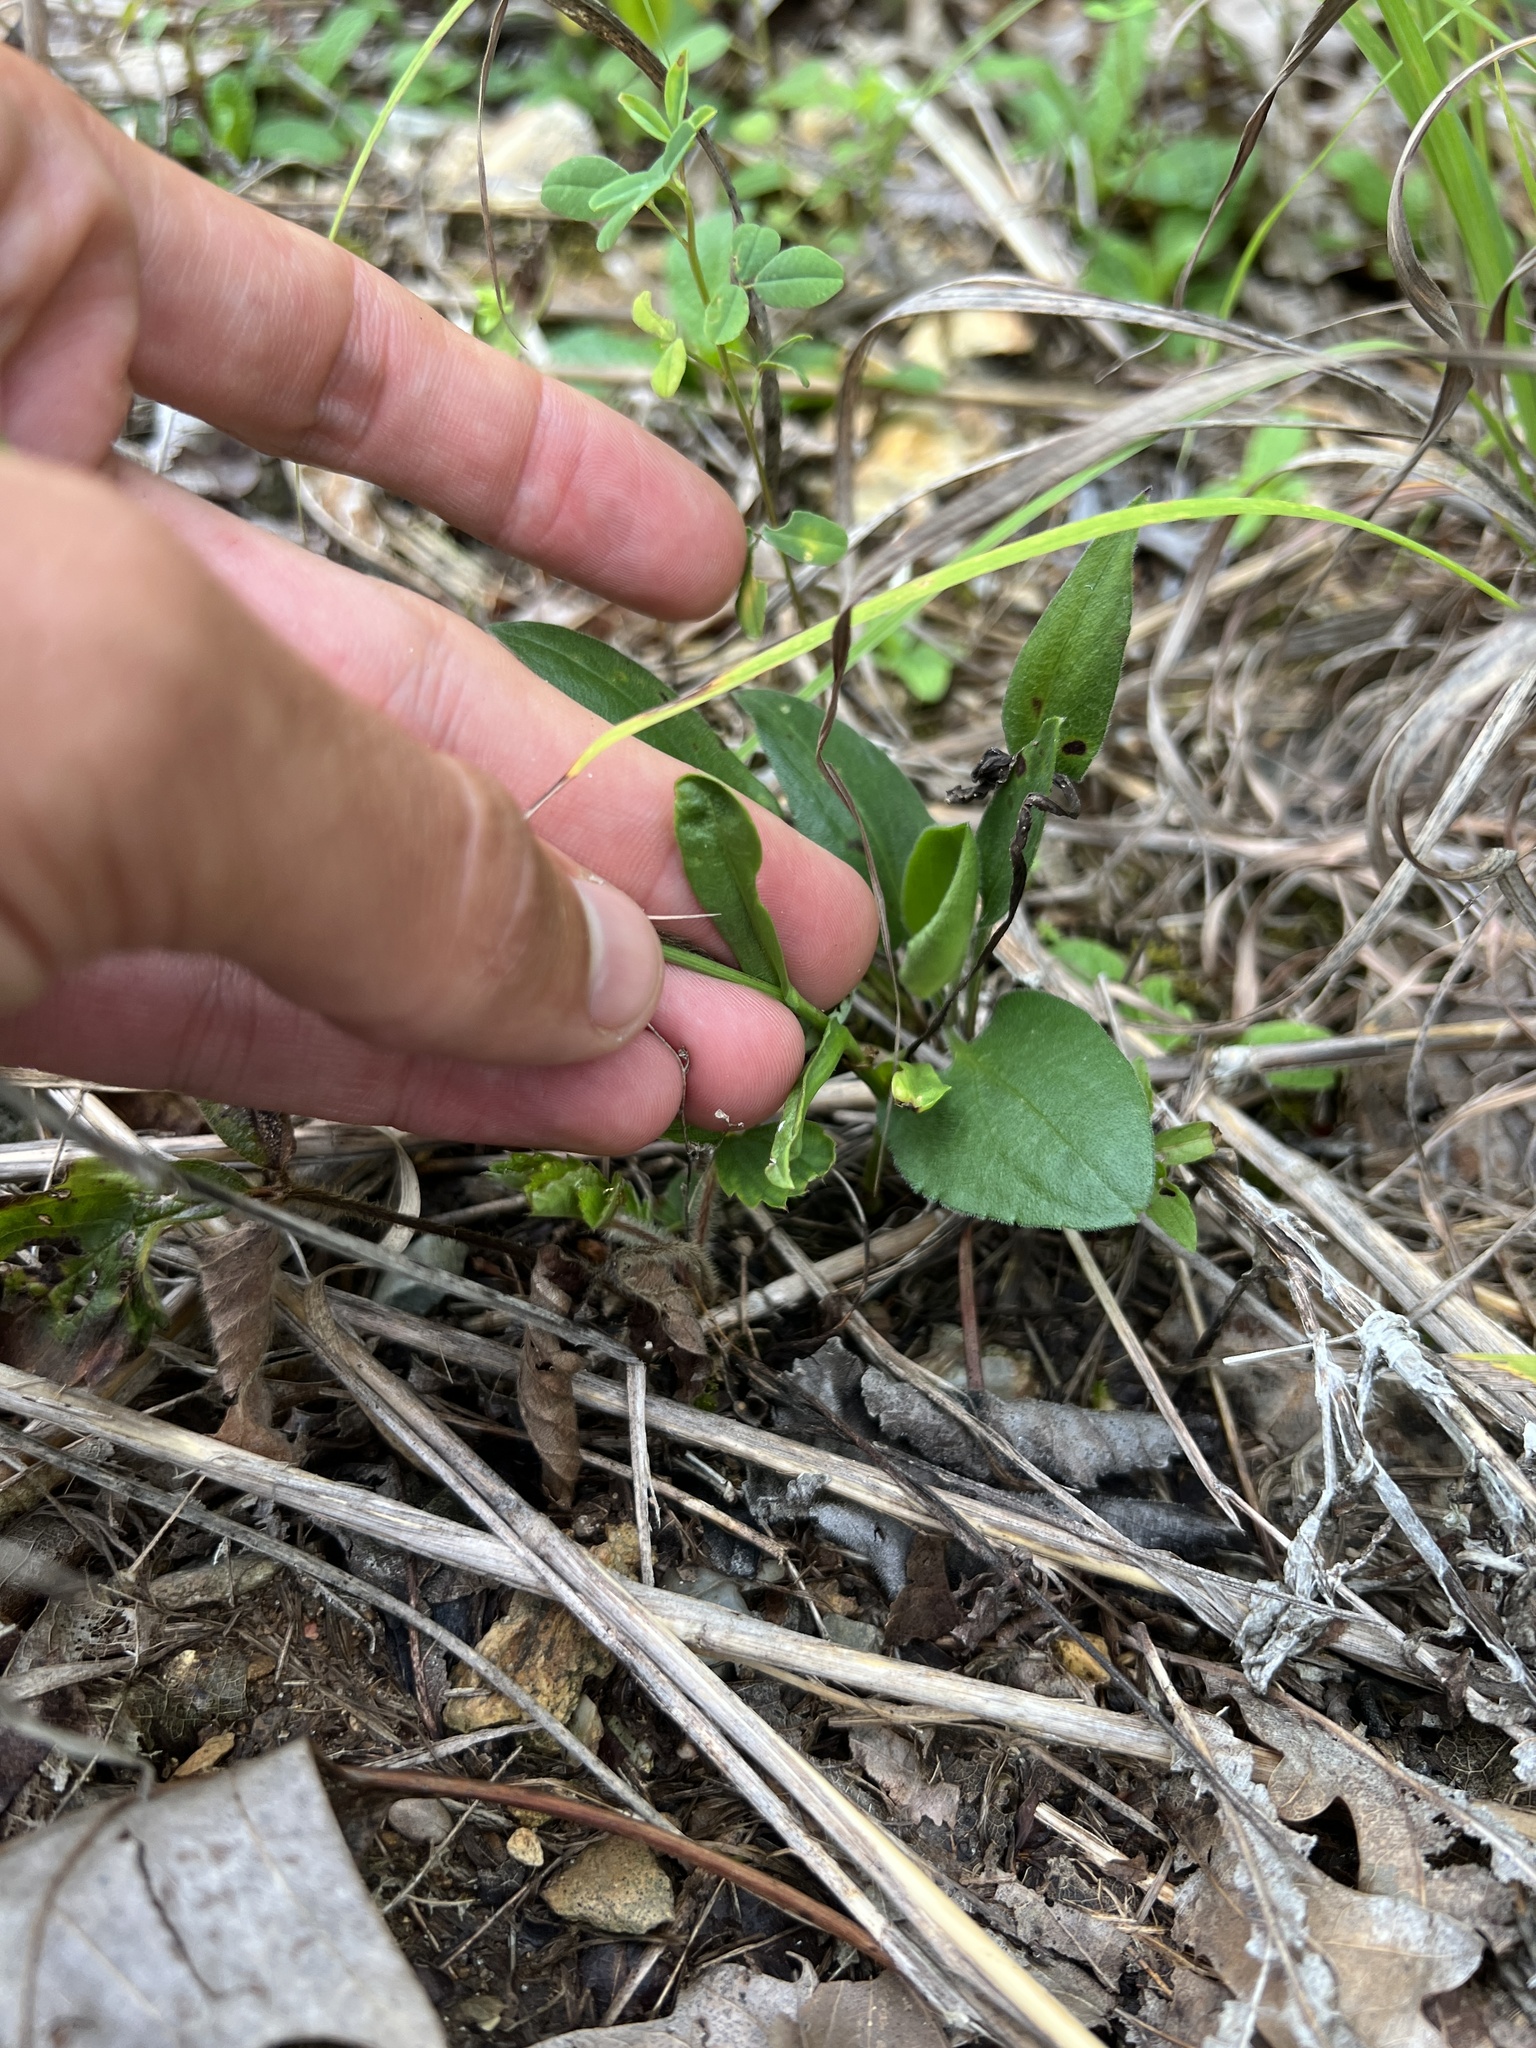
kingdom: Plantae
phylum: Tracheophyta
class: Magnoliopsida
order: Asterales
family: Asteraceae
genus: Pyrrhopappus
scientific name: Pyrrhopappus carolinianus
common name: Carolina desert-chicory
